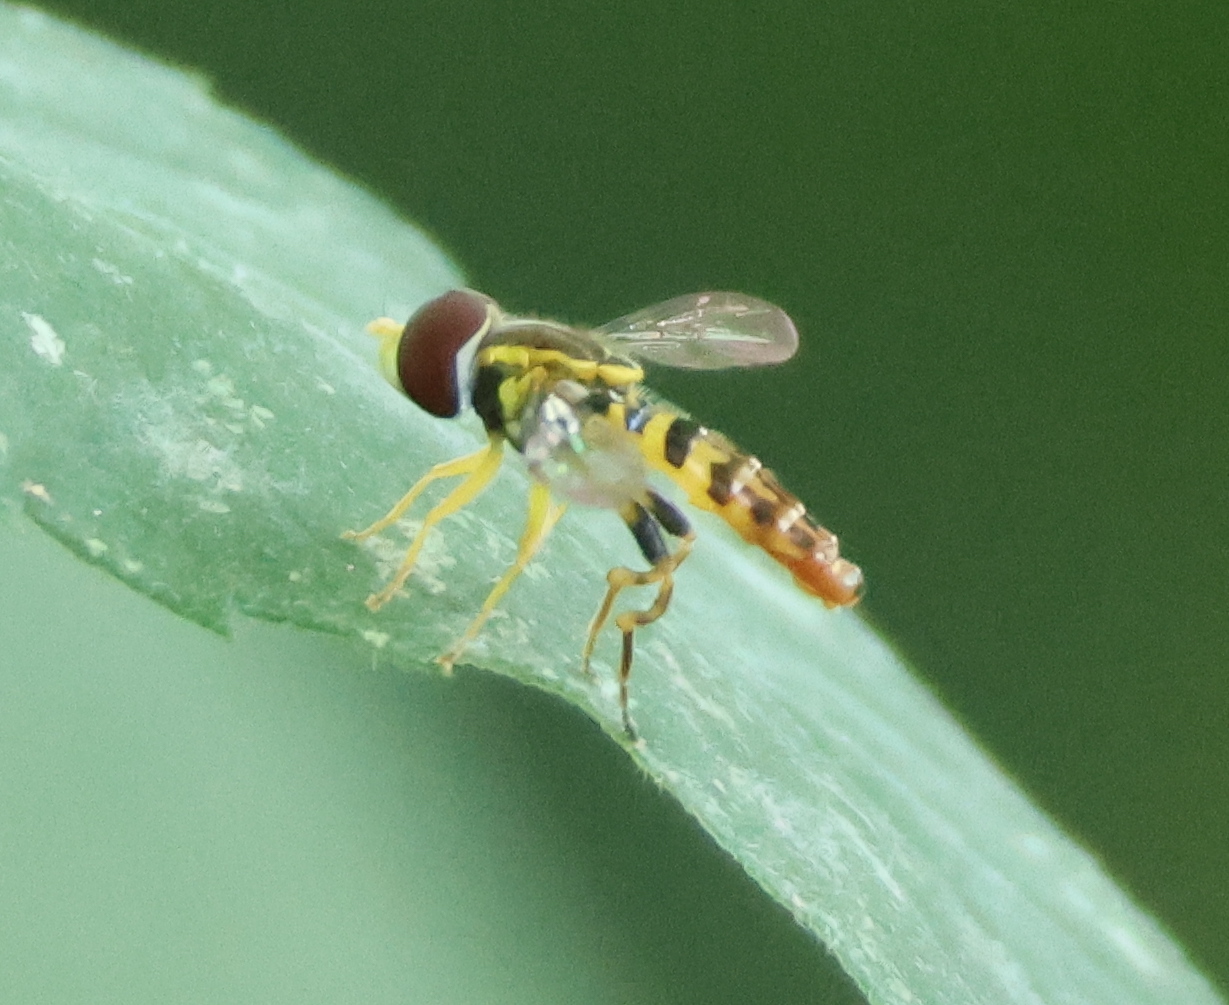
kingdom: Animalia
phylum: Arthropoda
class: Insecta
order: Diptera
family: Syrphidae
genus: Toxomerus
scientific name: Toxomerus geminatus
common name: Eastern calligrapher
